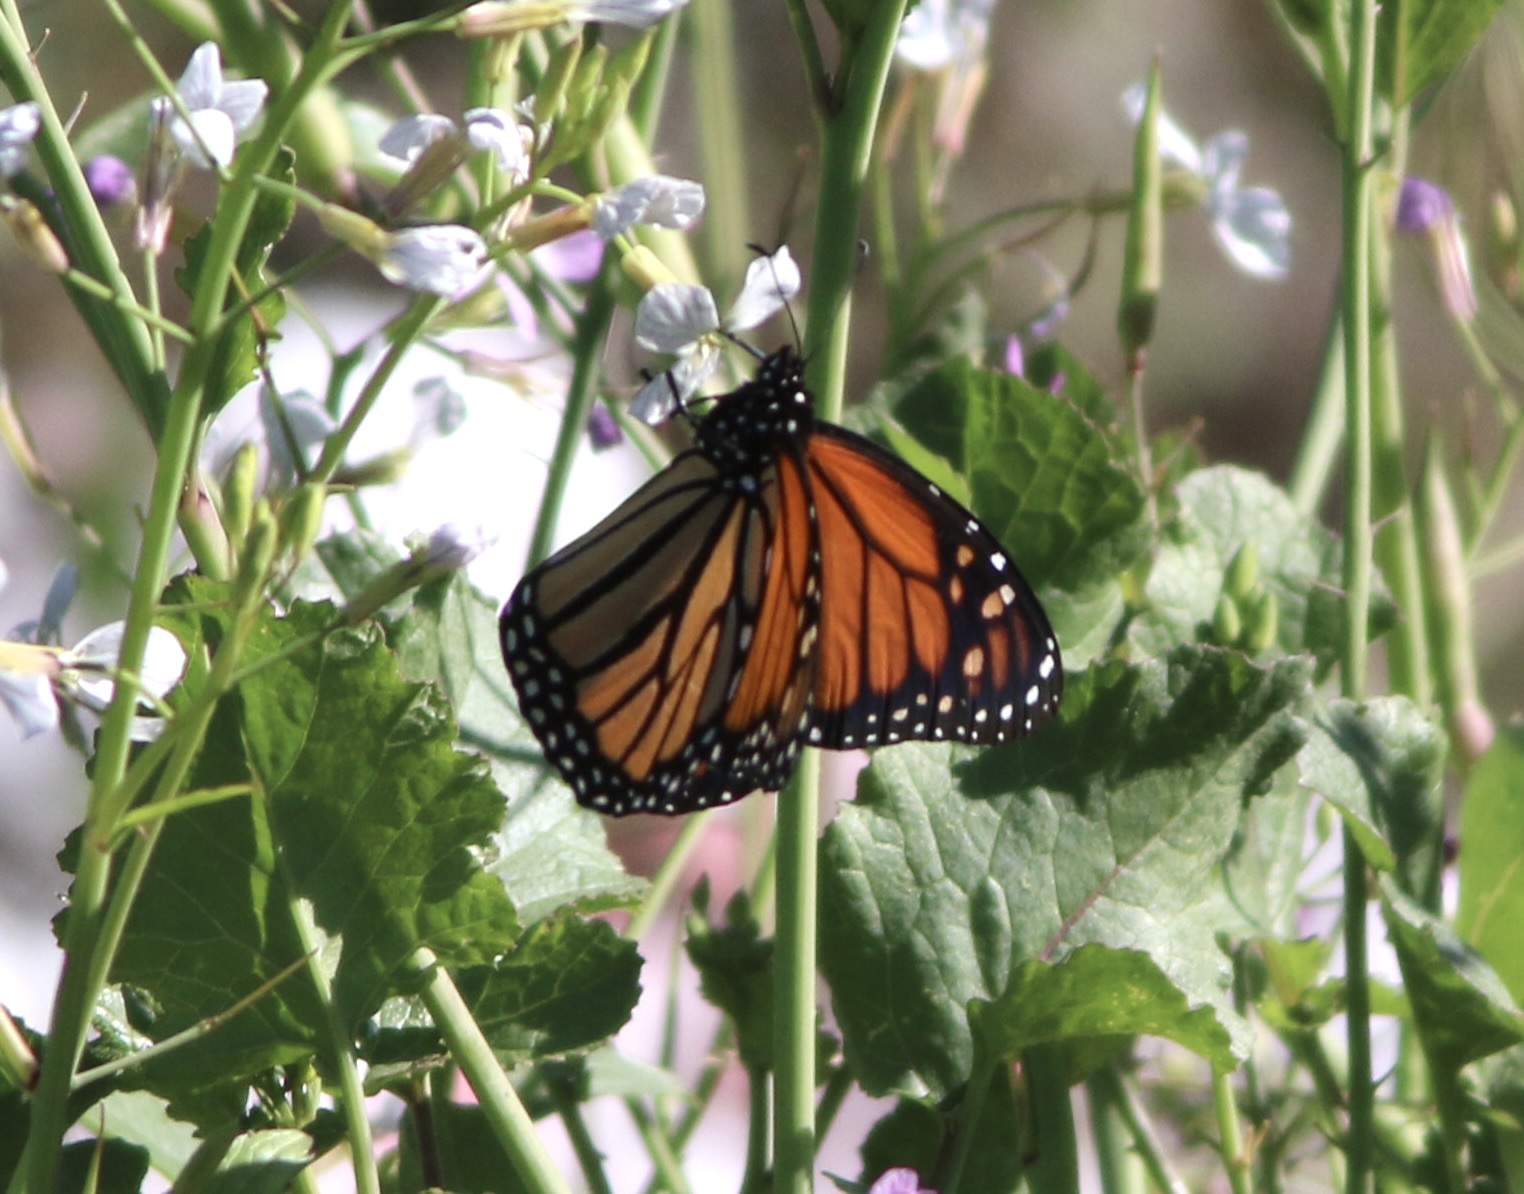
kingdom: Animalia
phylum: Arthropoda
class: Insecta
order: Lepidoptera
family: Nymphalidae
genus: Danaus
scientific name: Danaus plexippus
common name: Monarch
